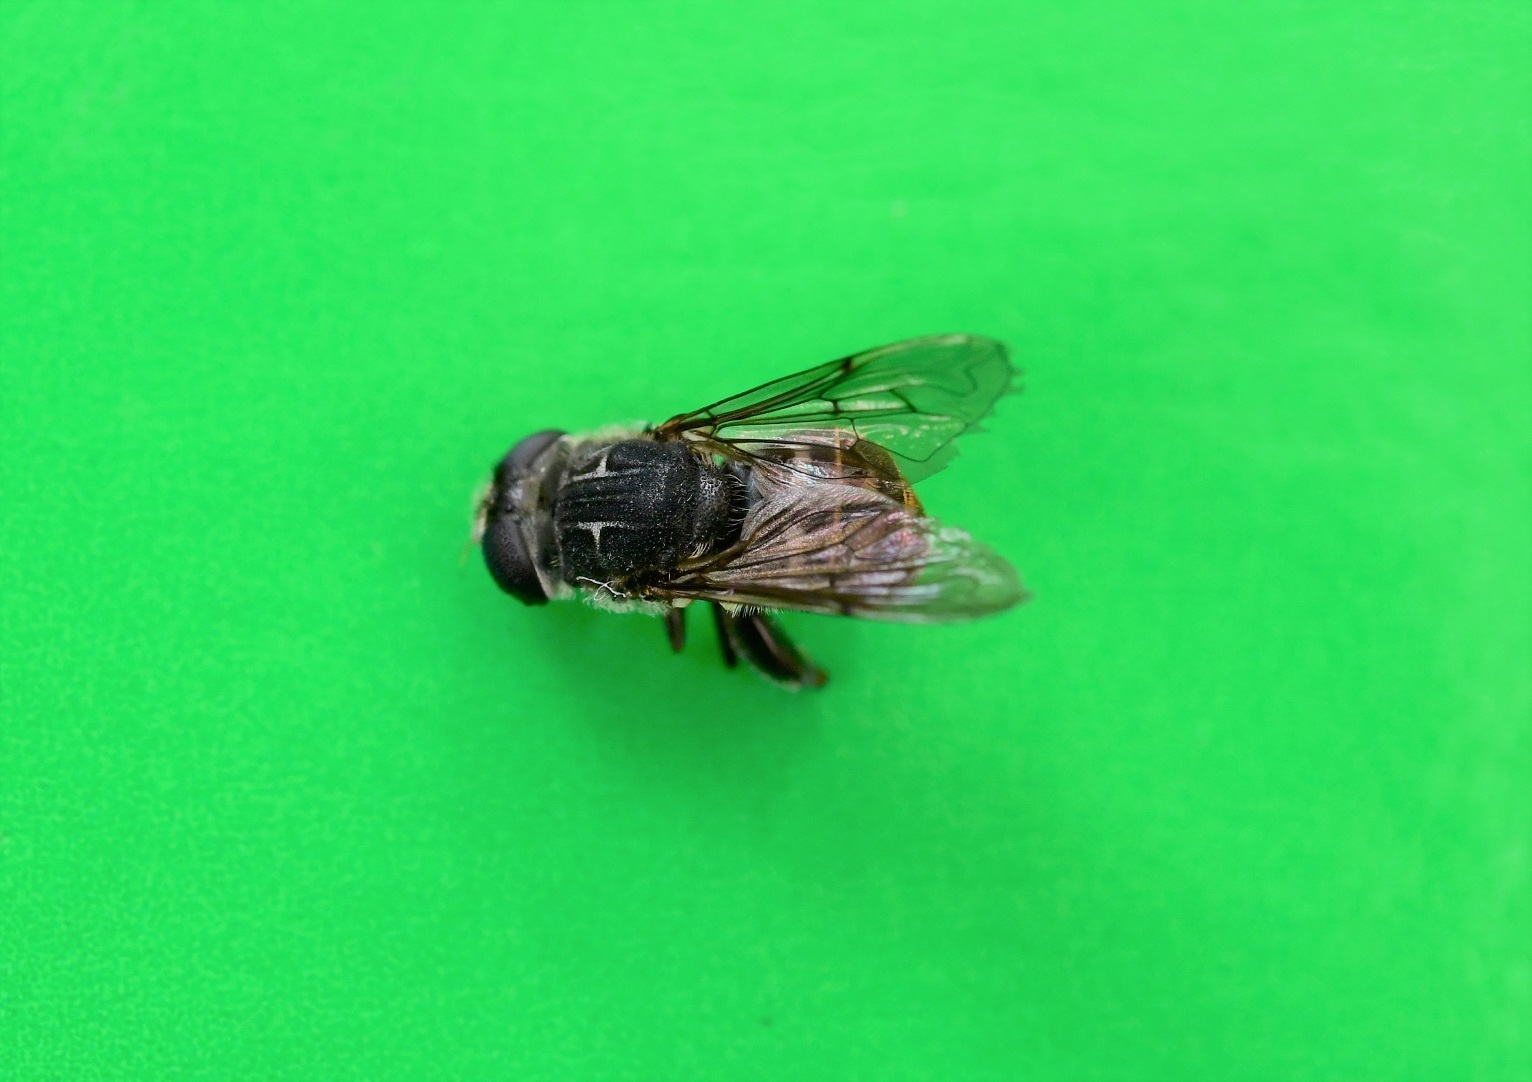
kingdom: Animalia
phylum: Arthropoda
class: Insecta
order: Diptera
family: Syrphidae
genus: Asemosyrphus
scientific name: Asemosyrphus
